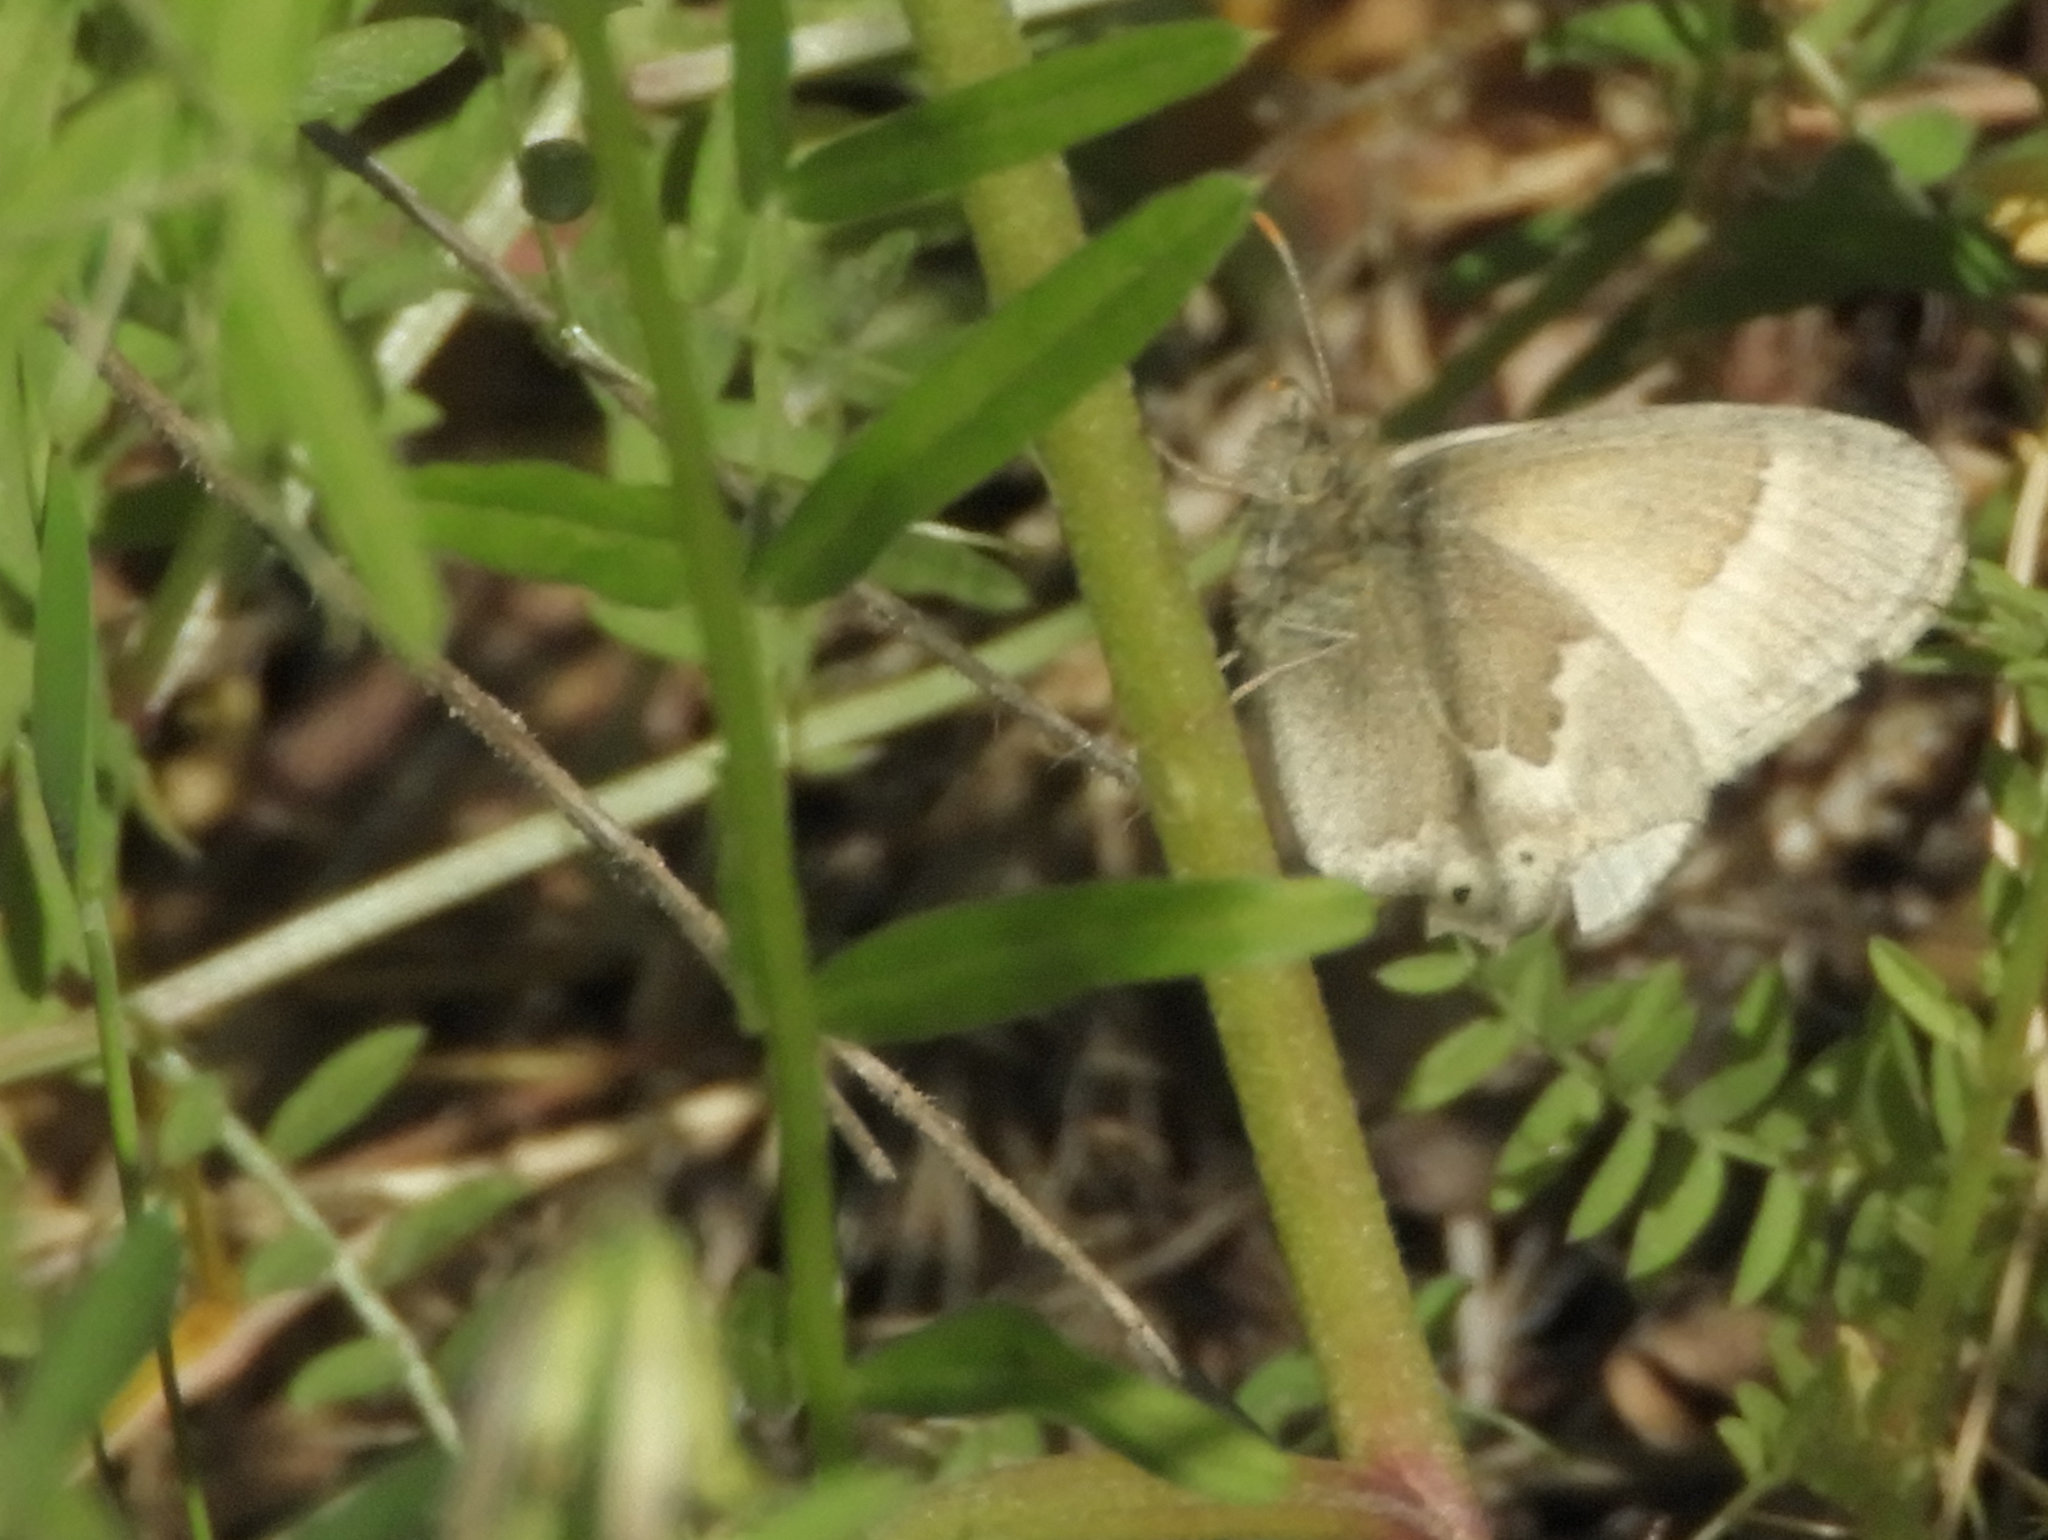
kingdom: Animalia
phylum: Arthropoda
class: Insecta
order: Lepidoptera
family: Nymphalidae
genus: Coenonympha
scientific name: Coenonympha california
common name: Common ringlet
